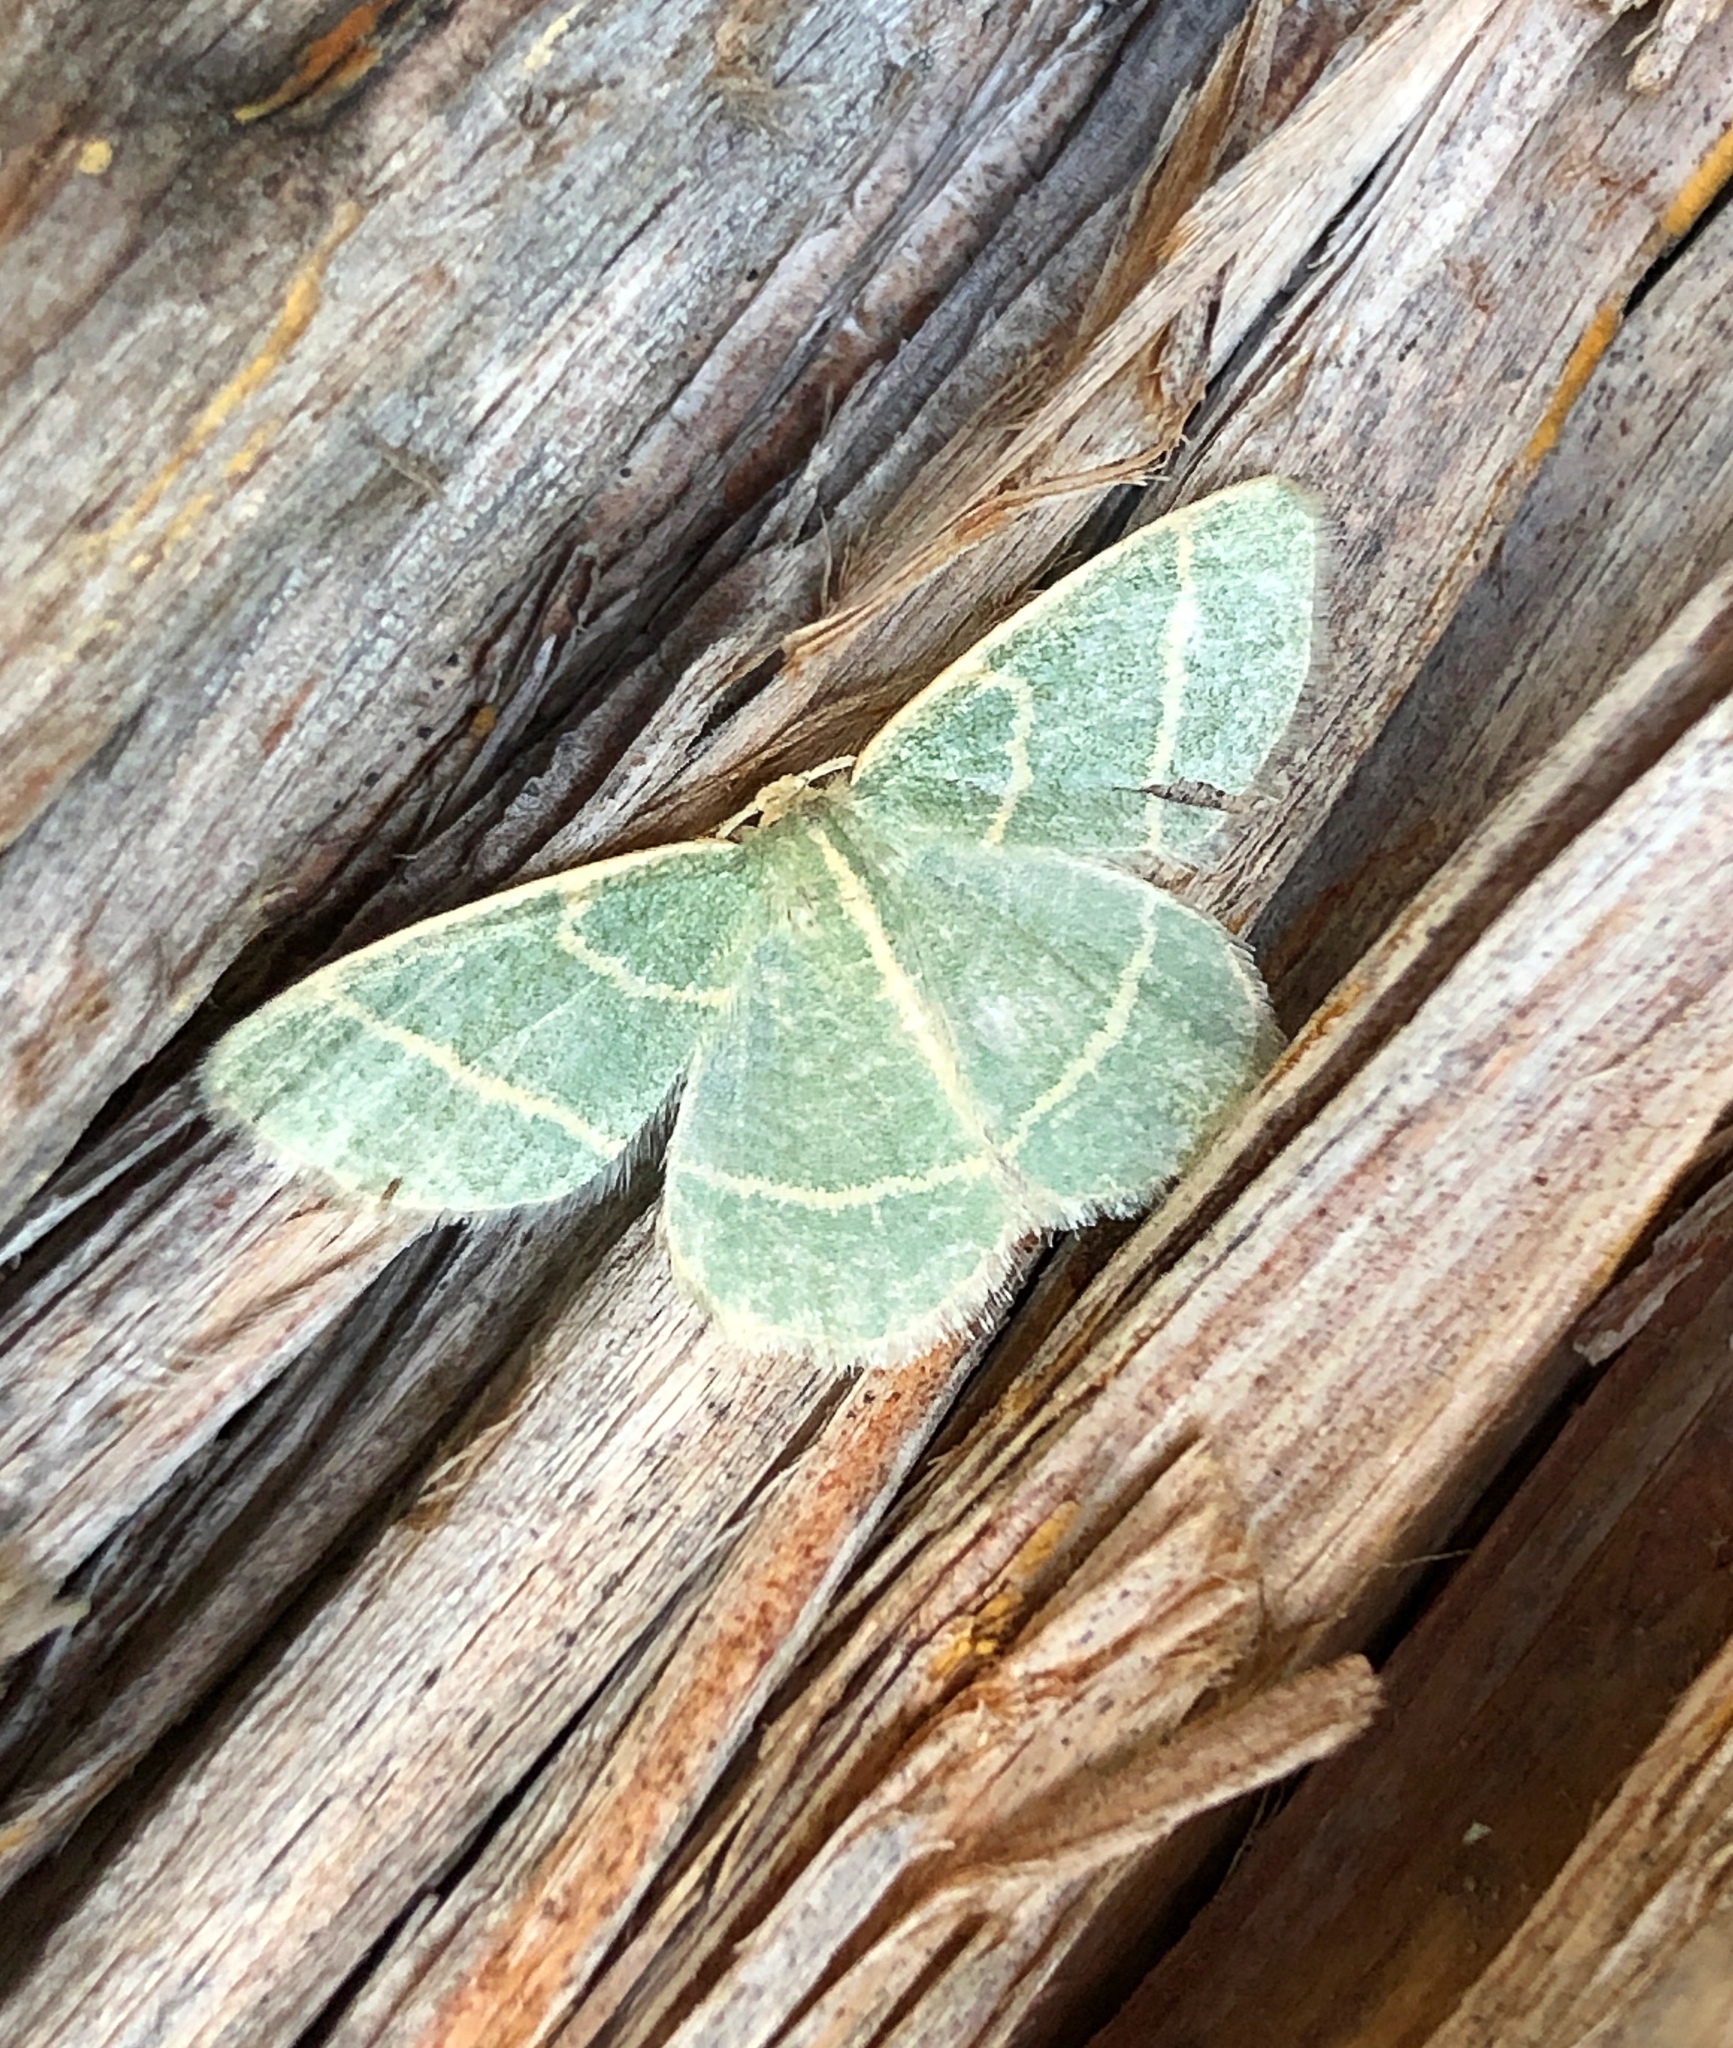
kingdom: Animalia
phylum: Arthropoda
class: Insecta
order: Lepidoptera
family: Geometridae
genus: Chlorochlamys
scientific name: Chlorochlamys chloroleucaria
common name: Blackberry looper
